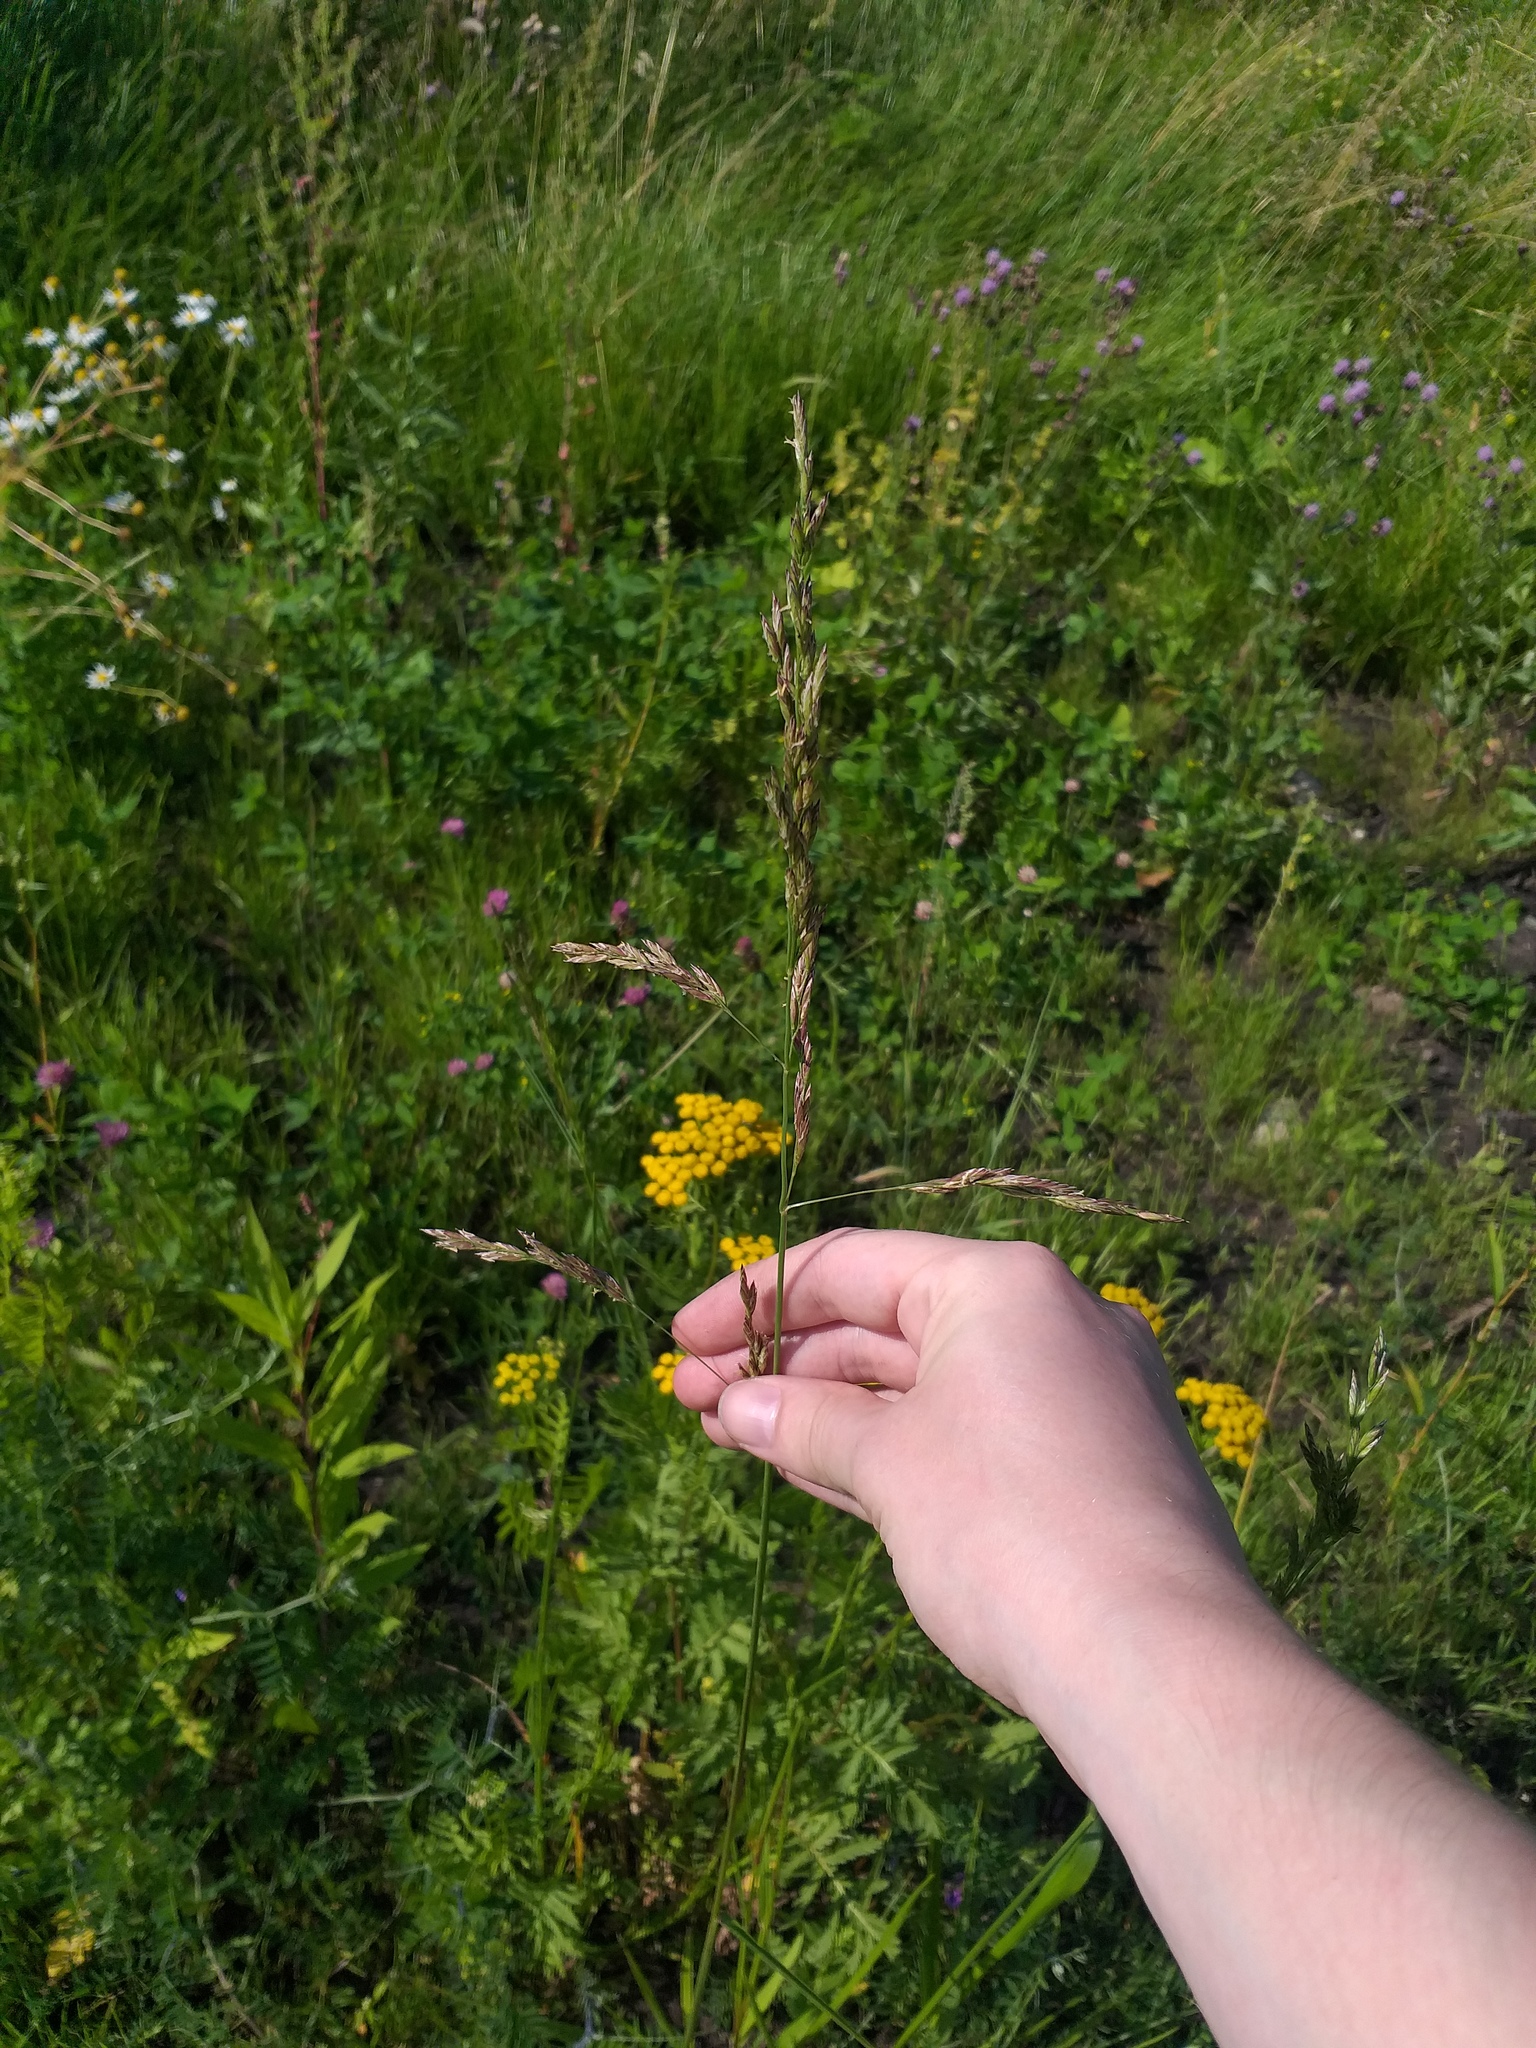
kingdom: Plantae
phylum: Tracheophyta
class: Liliopsida
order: Poales
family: Poaceae
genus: Lolium
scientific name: Lolium arundinaceum
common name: Reed fescue
